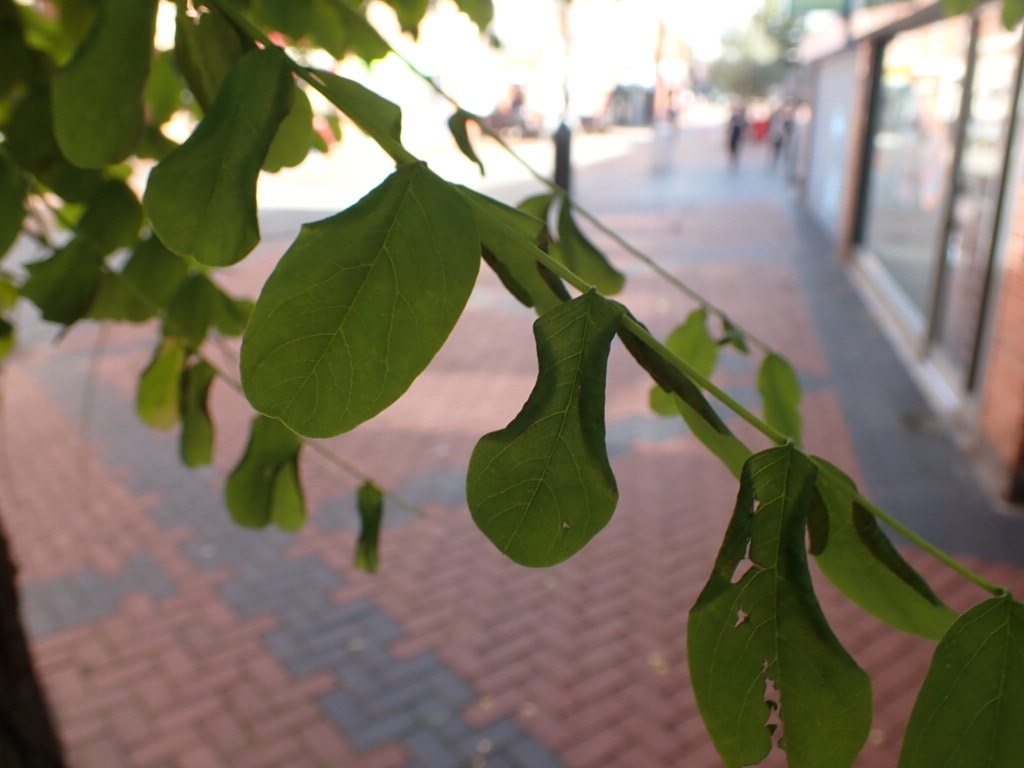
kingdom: Animalia
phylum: Arthropoda
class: Insecta
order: Diptera
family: Cecidomyiidae
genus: Obolodiplosis
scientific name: Obolodiplosis robiniae
